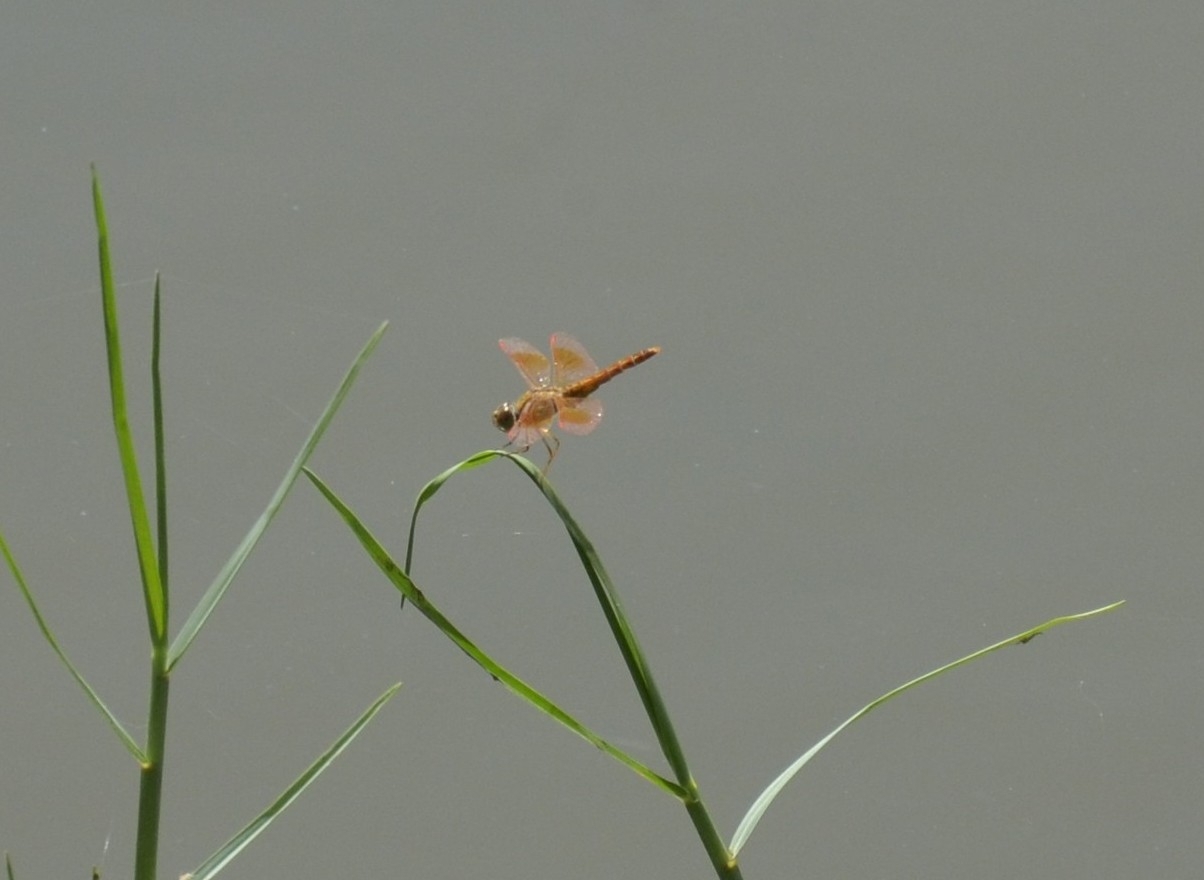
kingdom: Animalia
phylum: Arthropoda
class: Insecta
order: Odonata
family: Libellulidae
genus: Brachythemis
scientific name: Brachythemis contaminata
